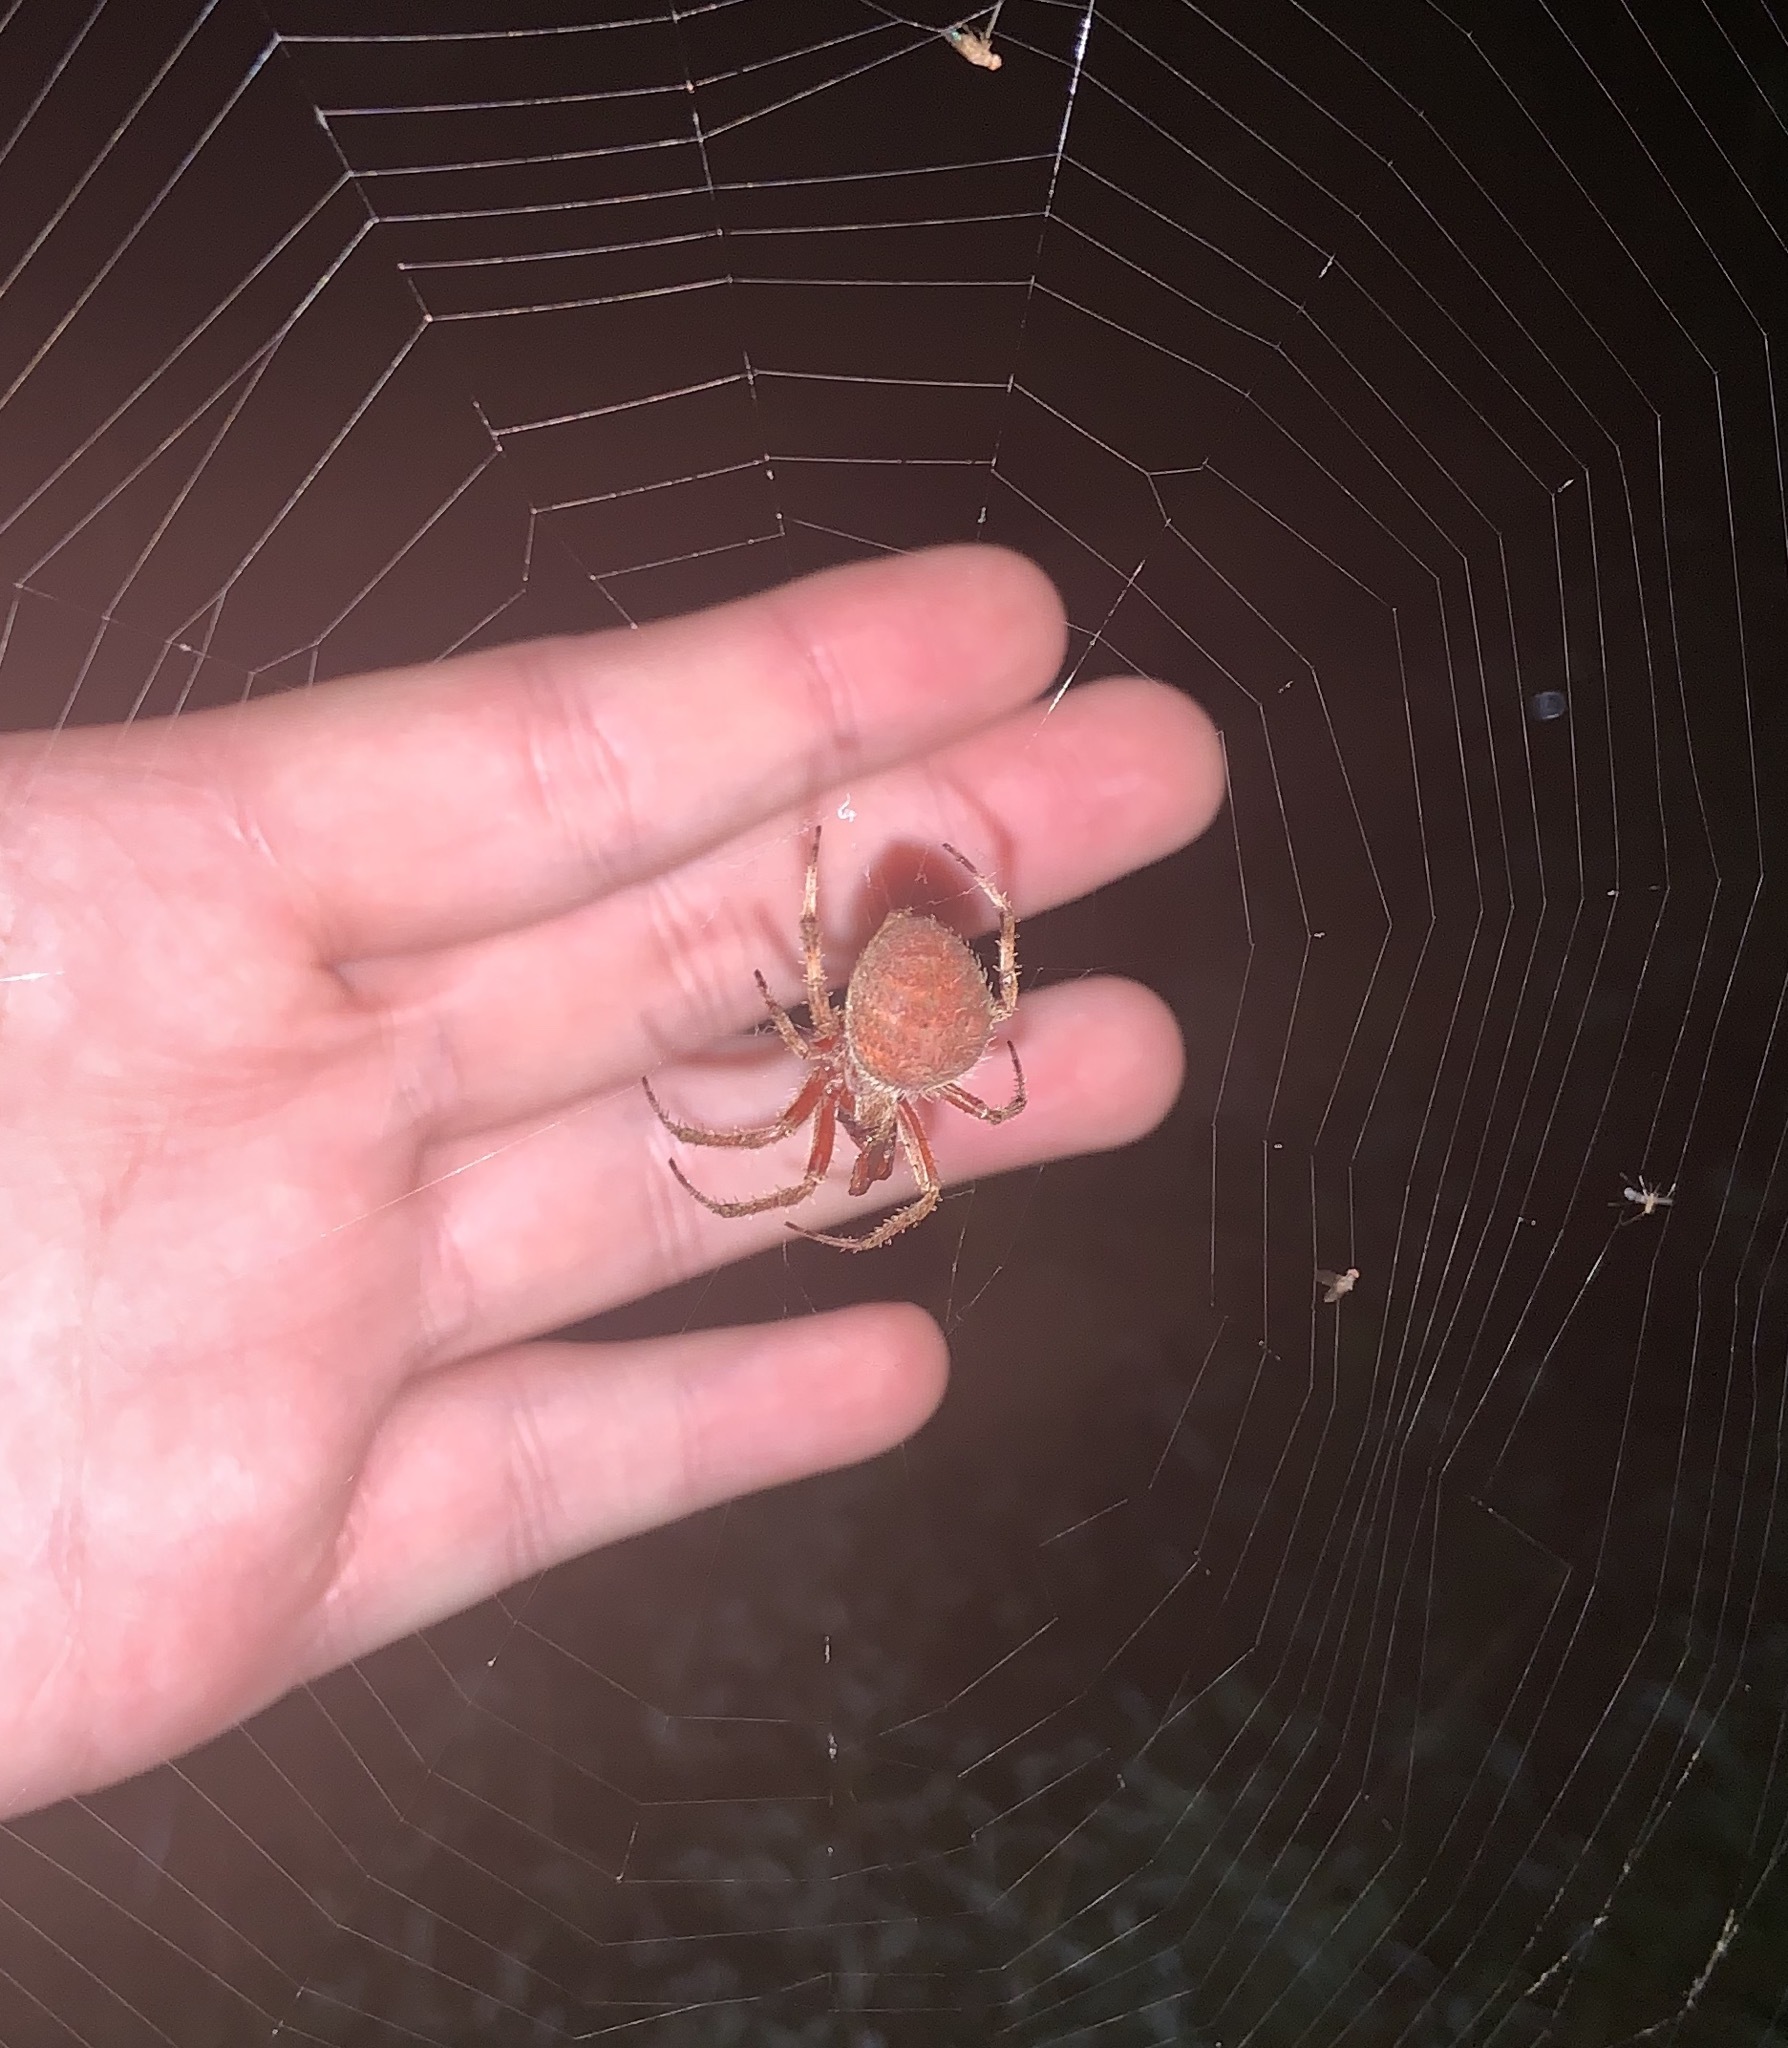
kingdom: Animalia
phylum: Arthropoda
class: Arachnida
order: Araneae
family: Araneidae
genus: Neoscona
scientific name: Neoscona crucifera
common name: Spotted orbweaver
